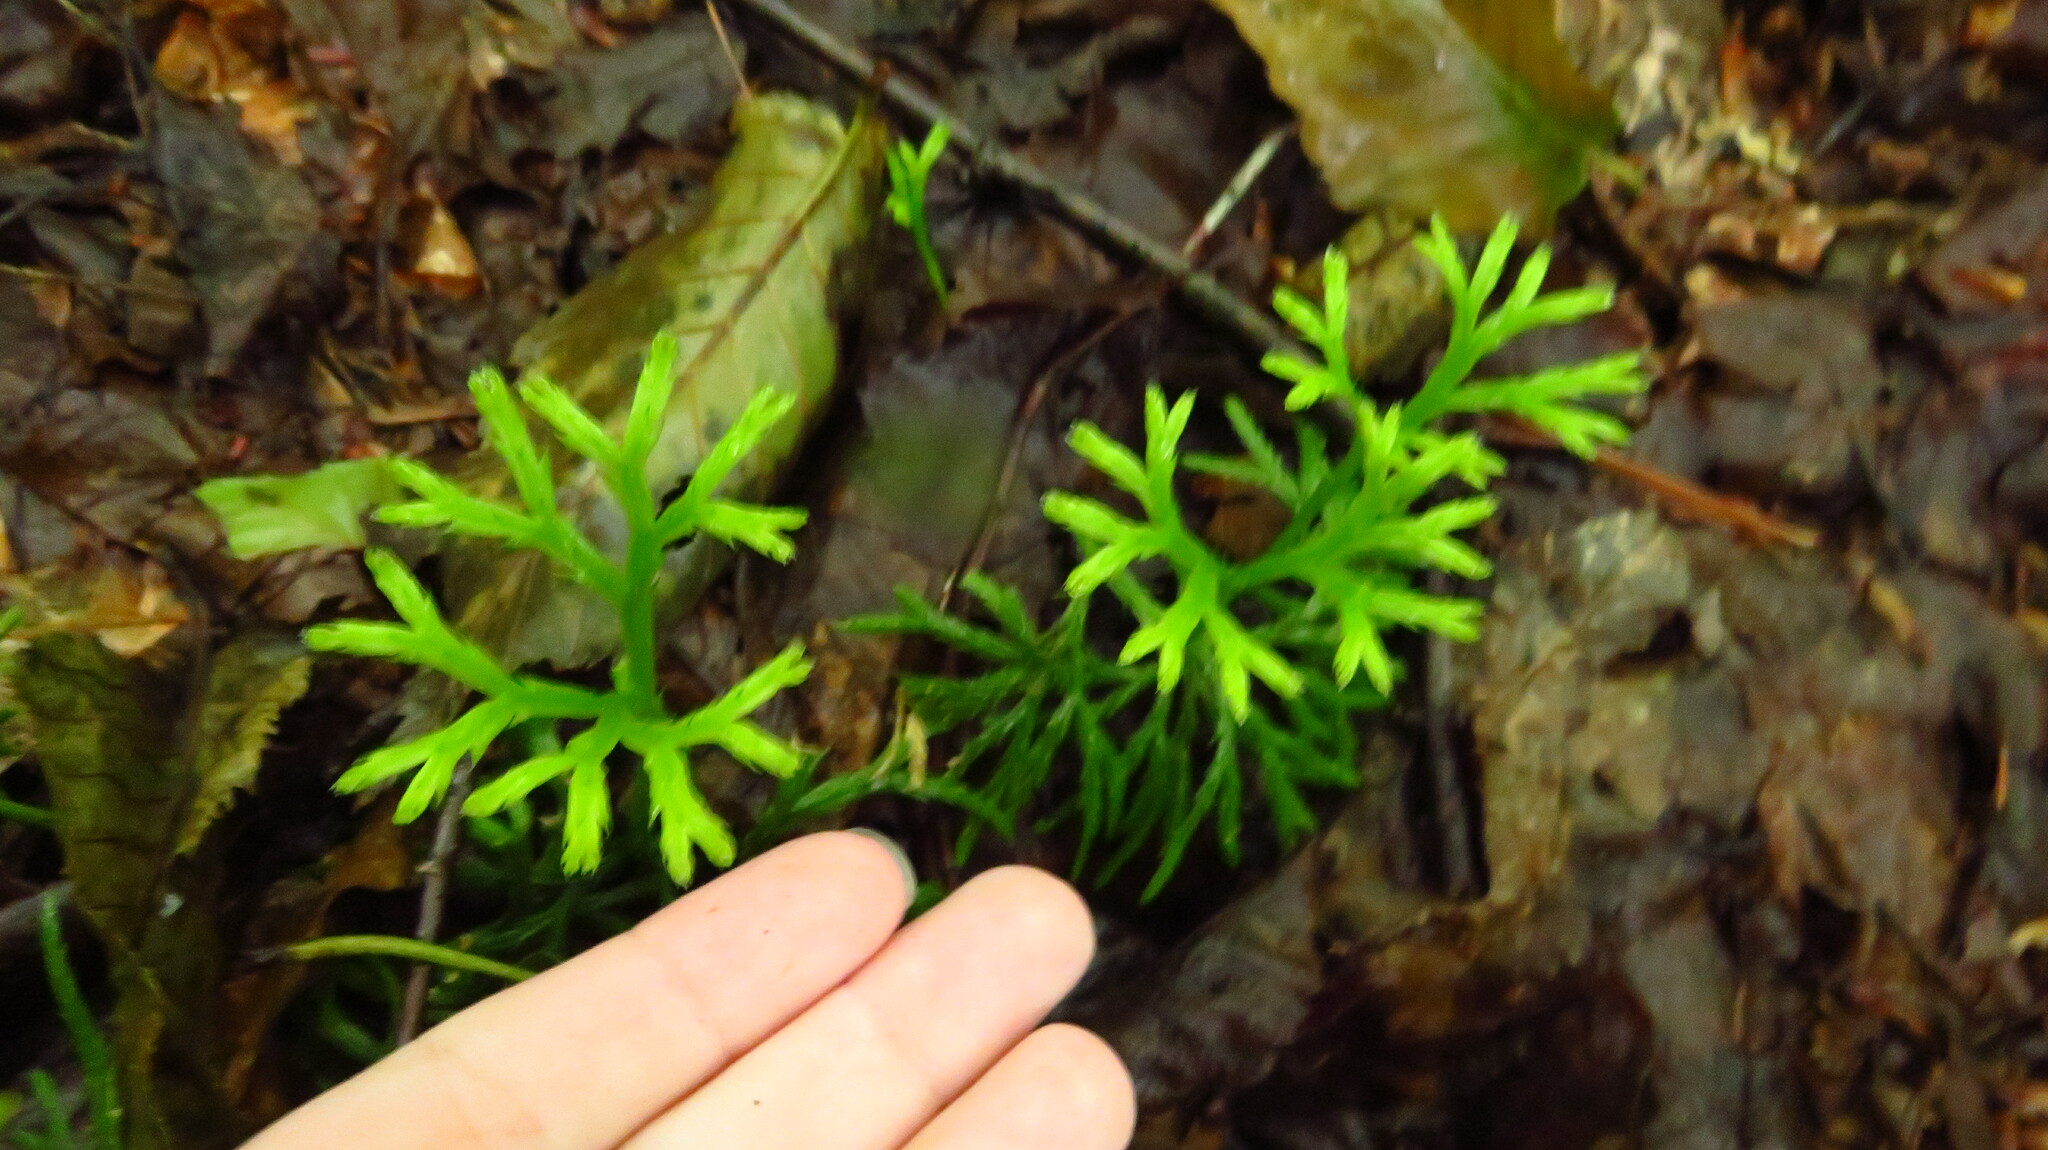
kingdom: Plantae
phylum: Tracheophyta
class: Lycopodiopsida
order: Lycopodiales
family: Lycopodiaceae
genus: Diphasiastrum
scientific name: Diphasiastrum digitatum
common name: Southern running-pine
